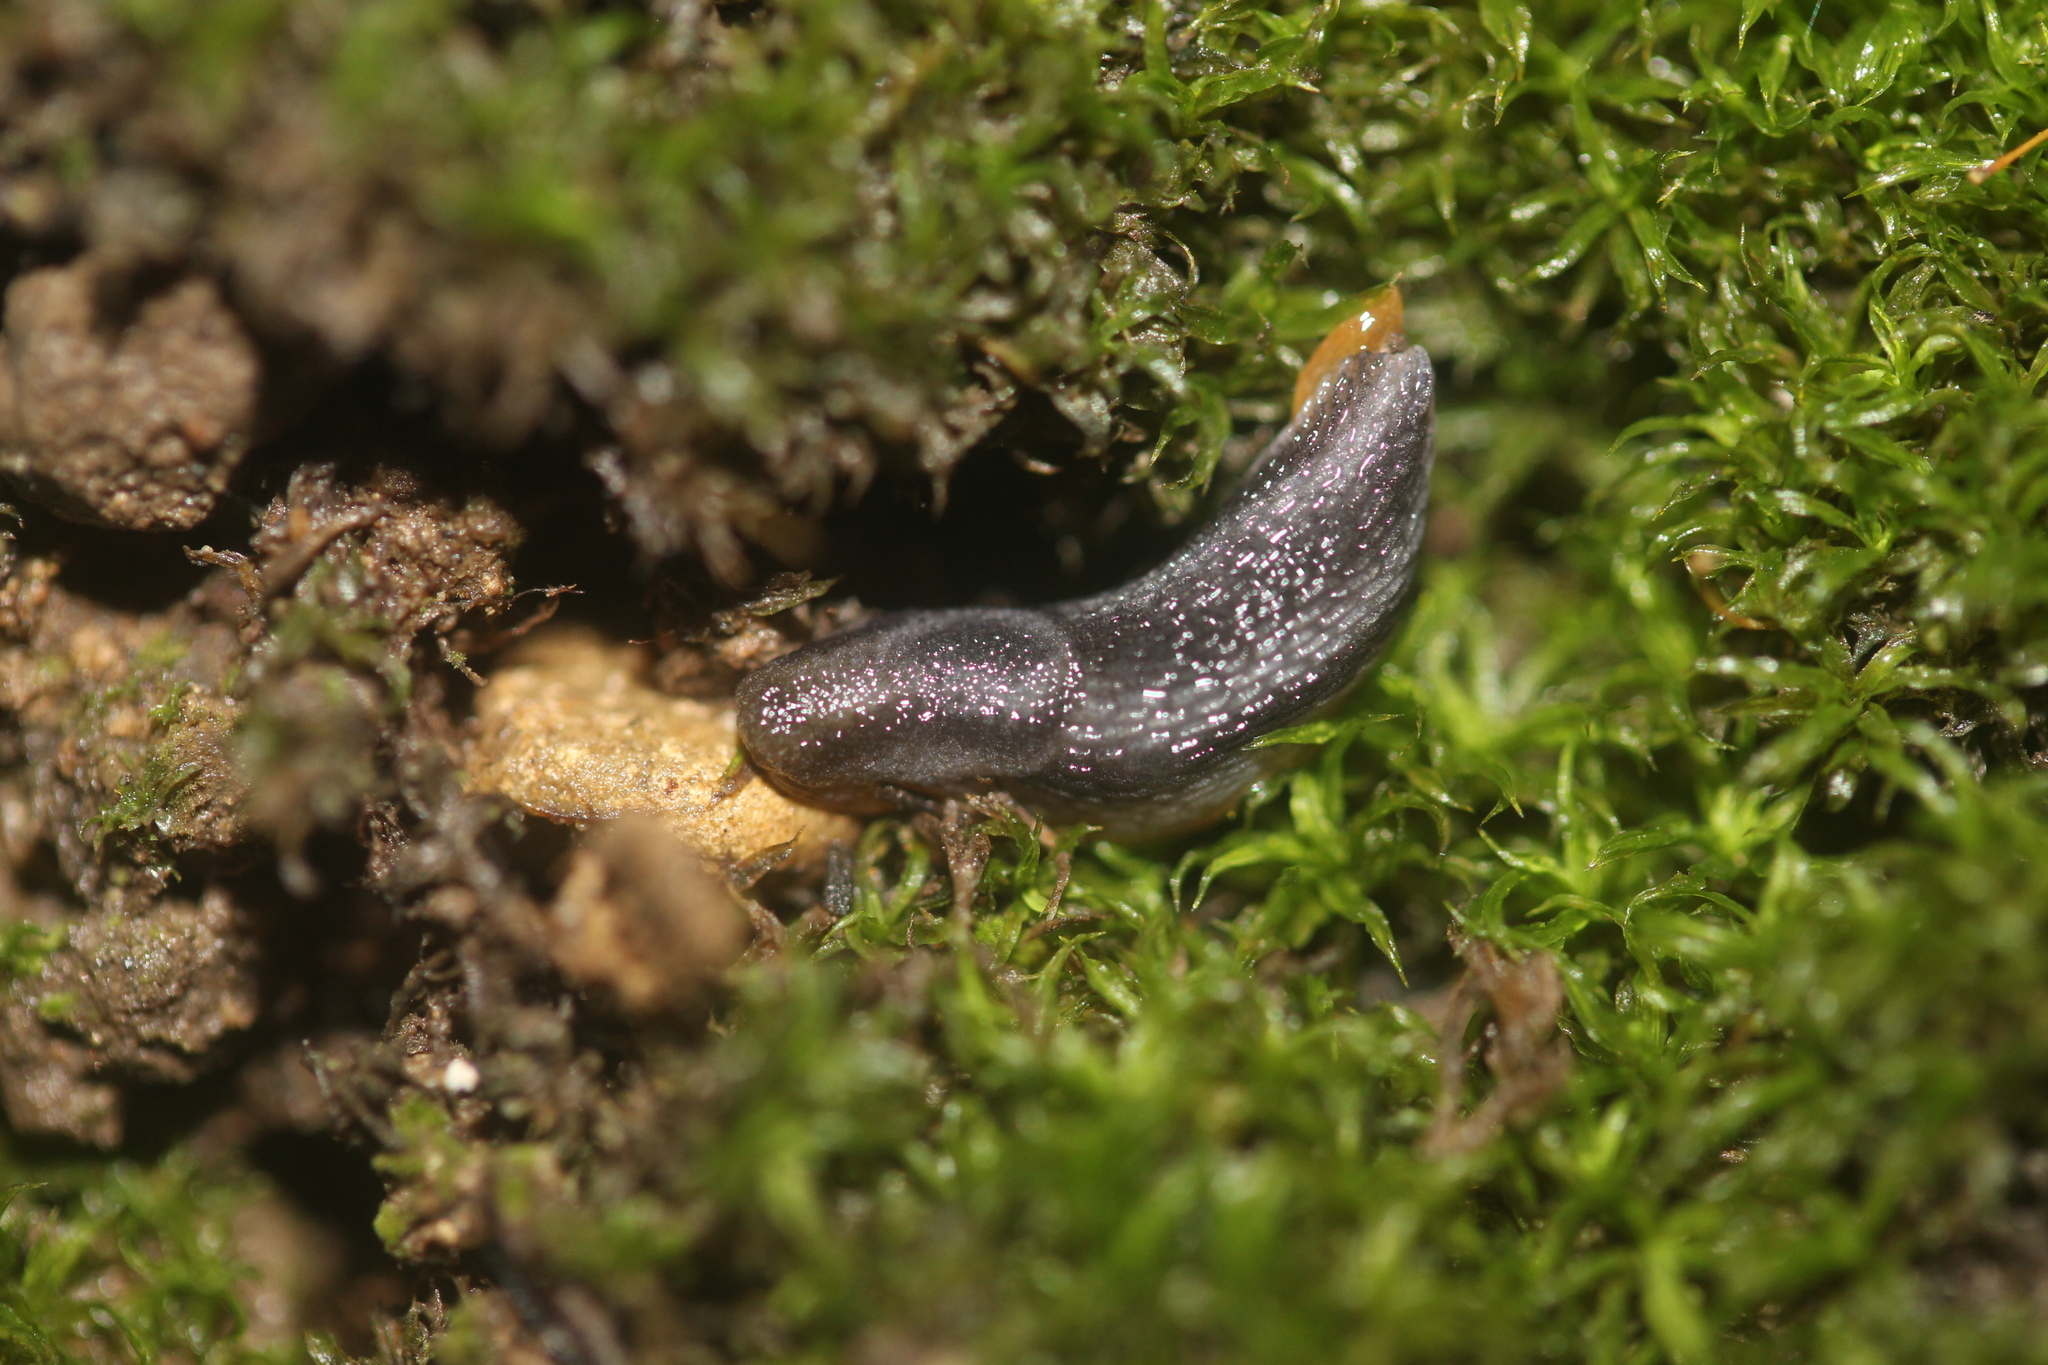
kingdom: Animalia
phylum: Mollusca
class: Gastropoda
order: Stylommatophora
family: Arionidae
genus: Kobeltia
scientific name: Kobeltia
